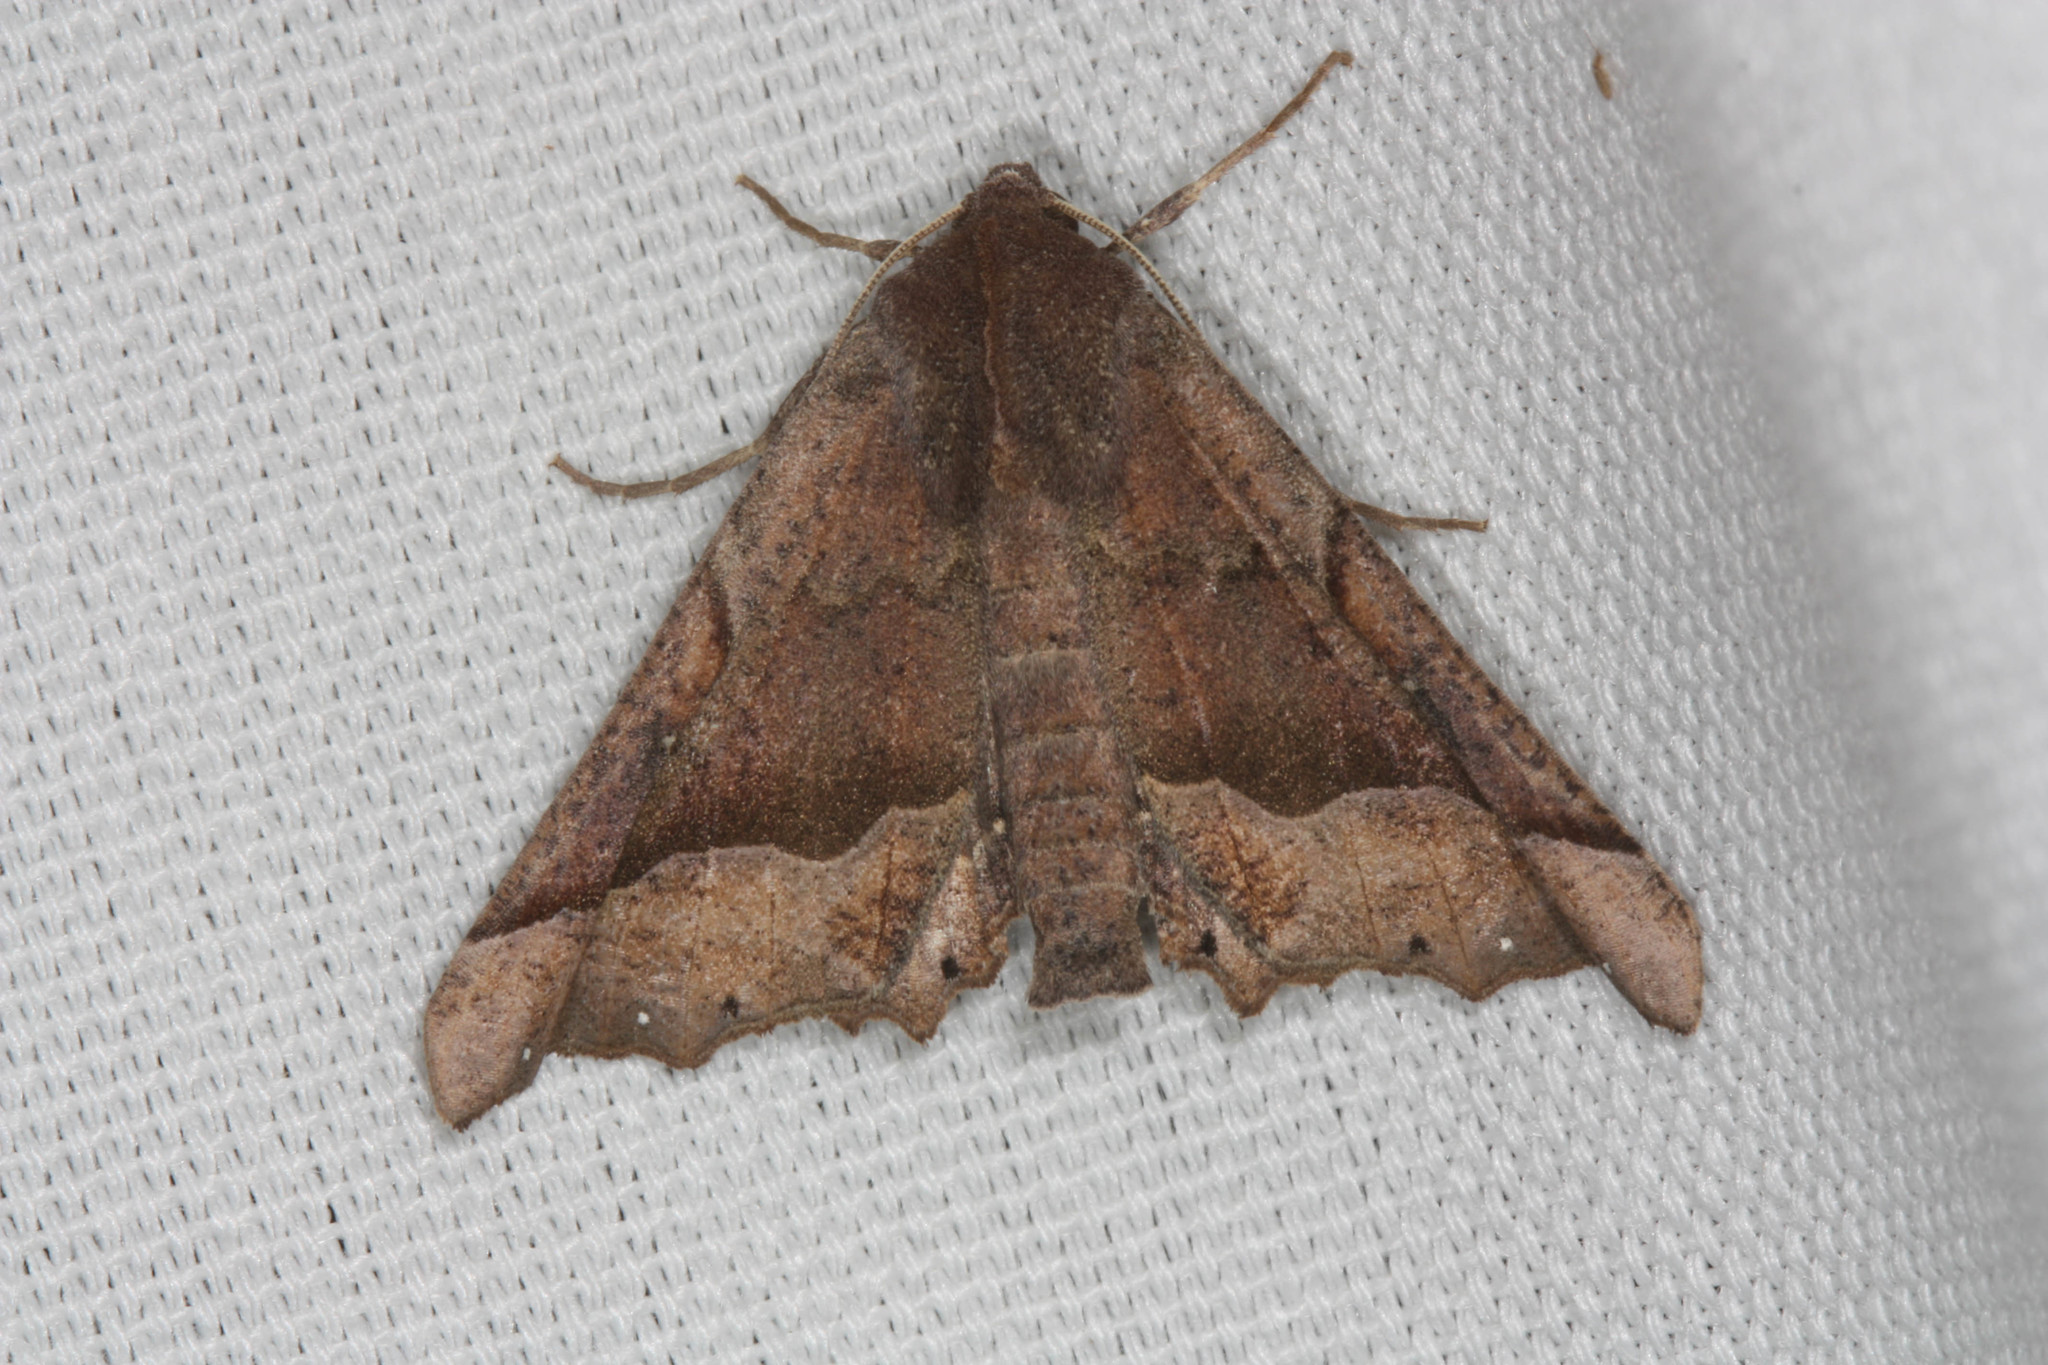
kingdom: Animalia
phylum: Arthropoda
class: Insecta
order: Lepidoptera
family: Geometridae
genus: Pero
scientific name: Pero mizon
